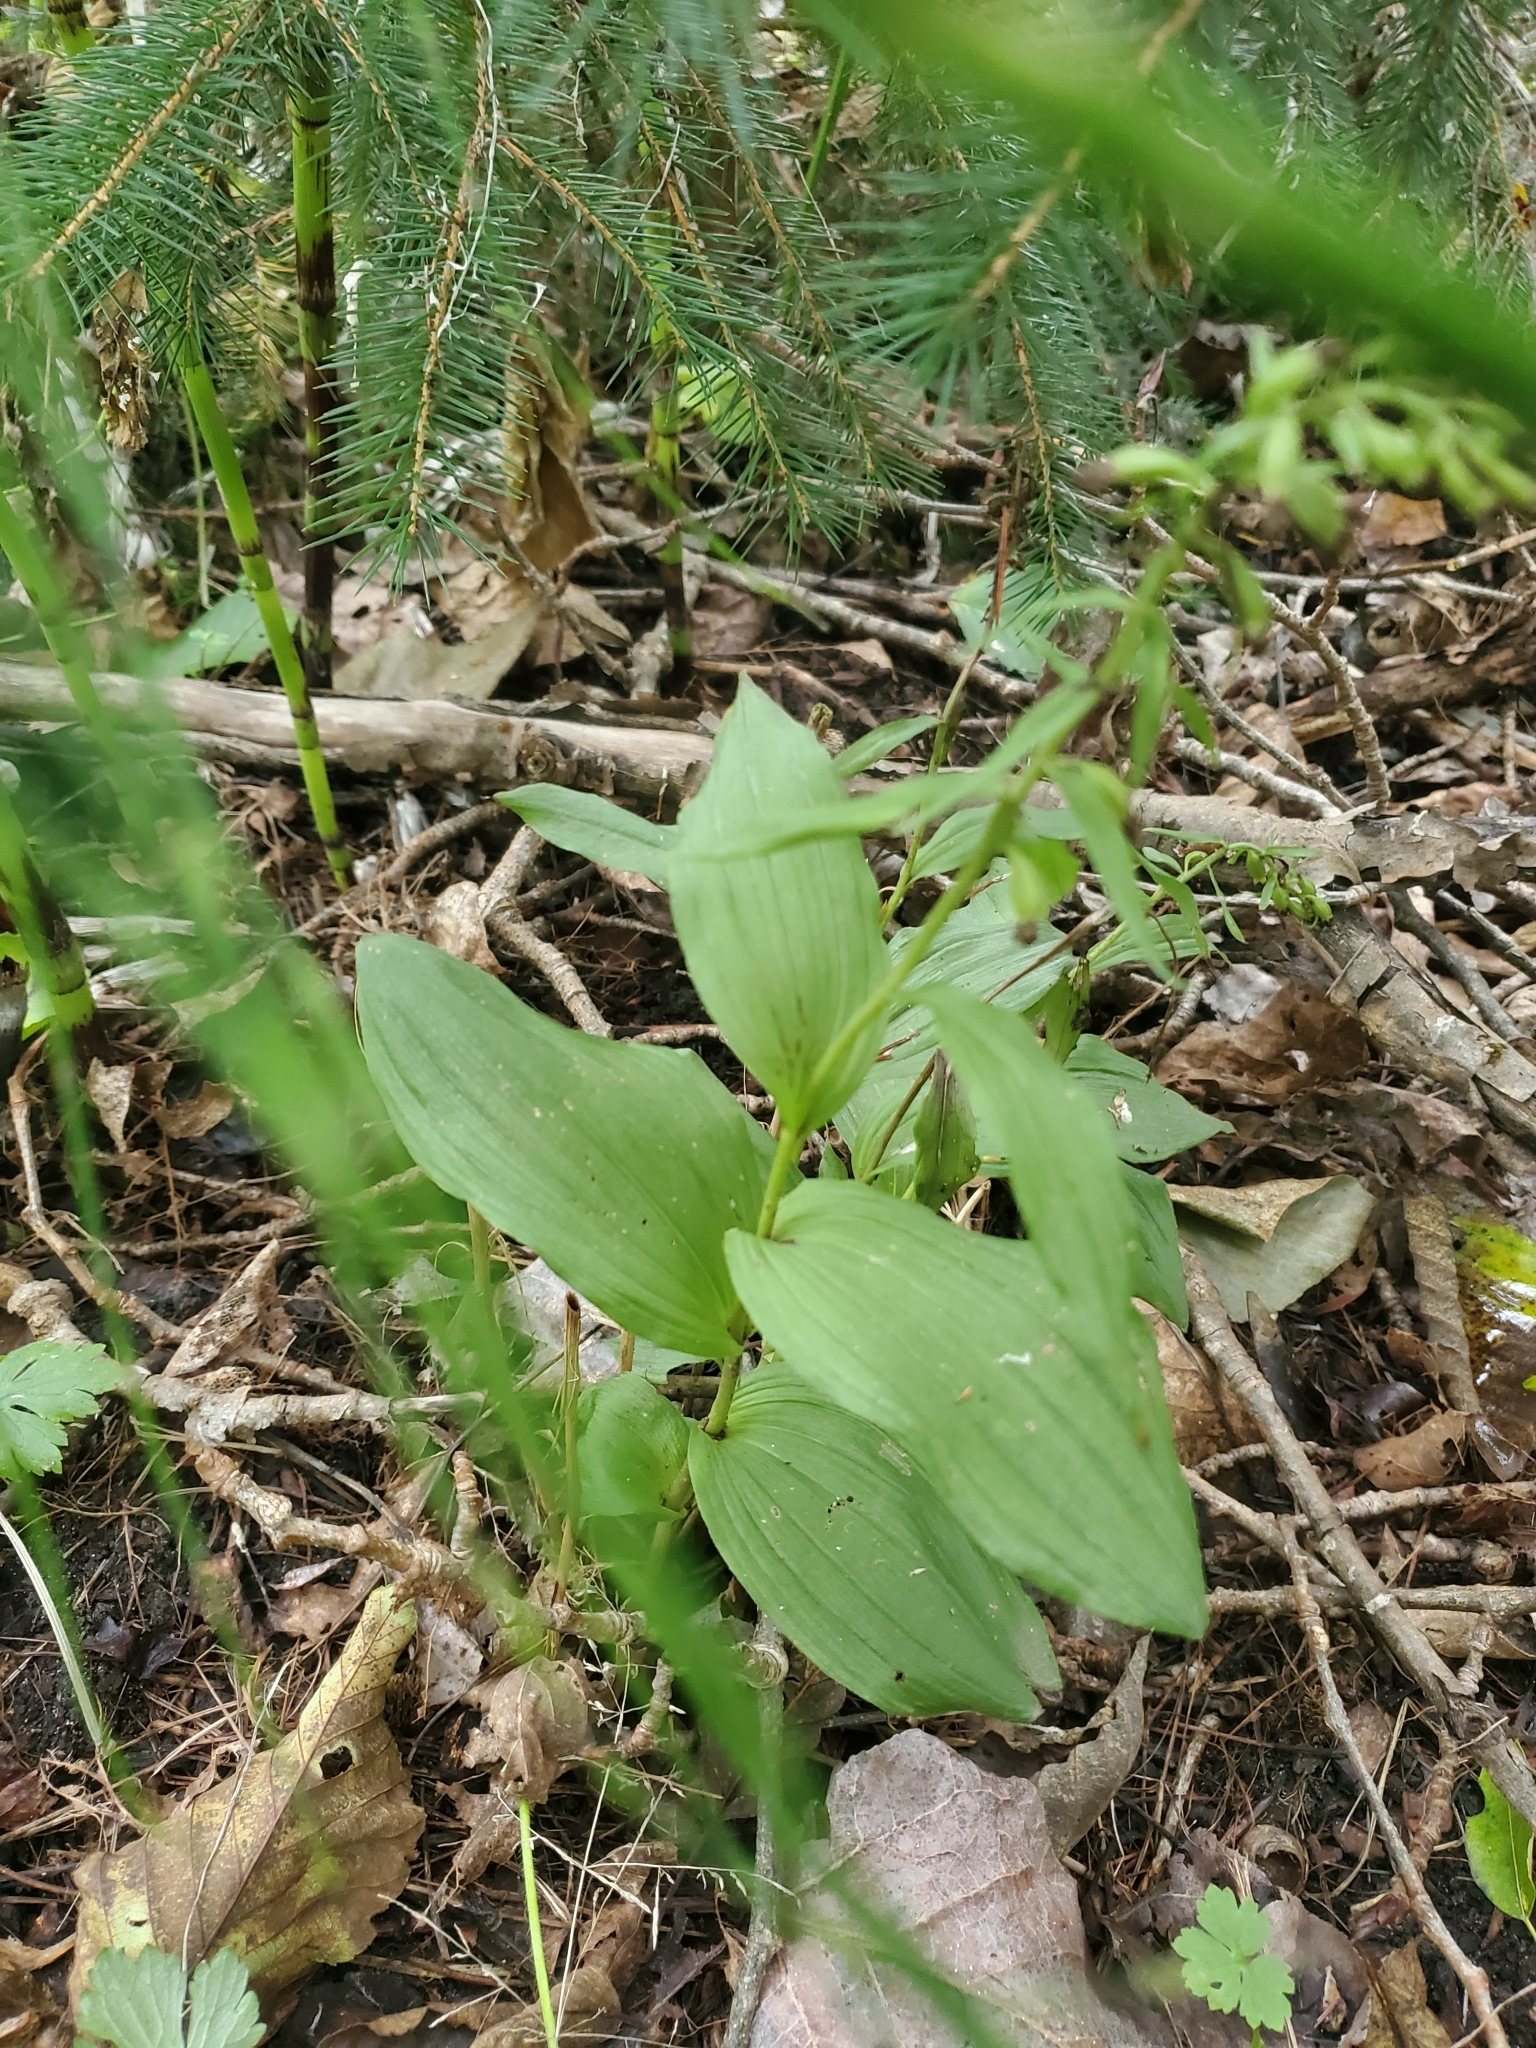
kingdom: Plantae
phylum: Tracheophyta
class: Liliopsida
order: Asparagales
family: Orchidaceae
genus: Epipactis
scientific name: Epipactis helleborine
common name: Broad-leaved helleborine
